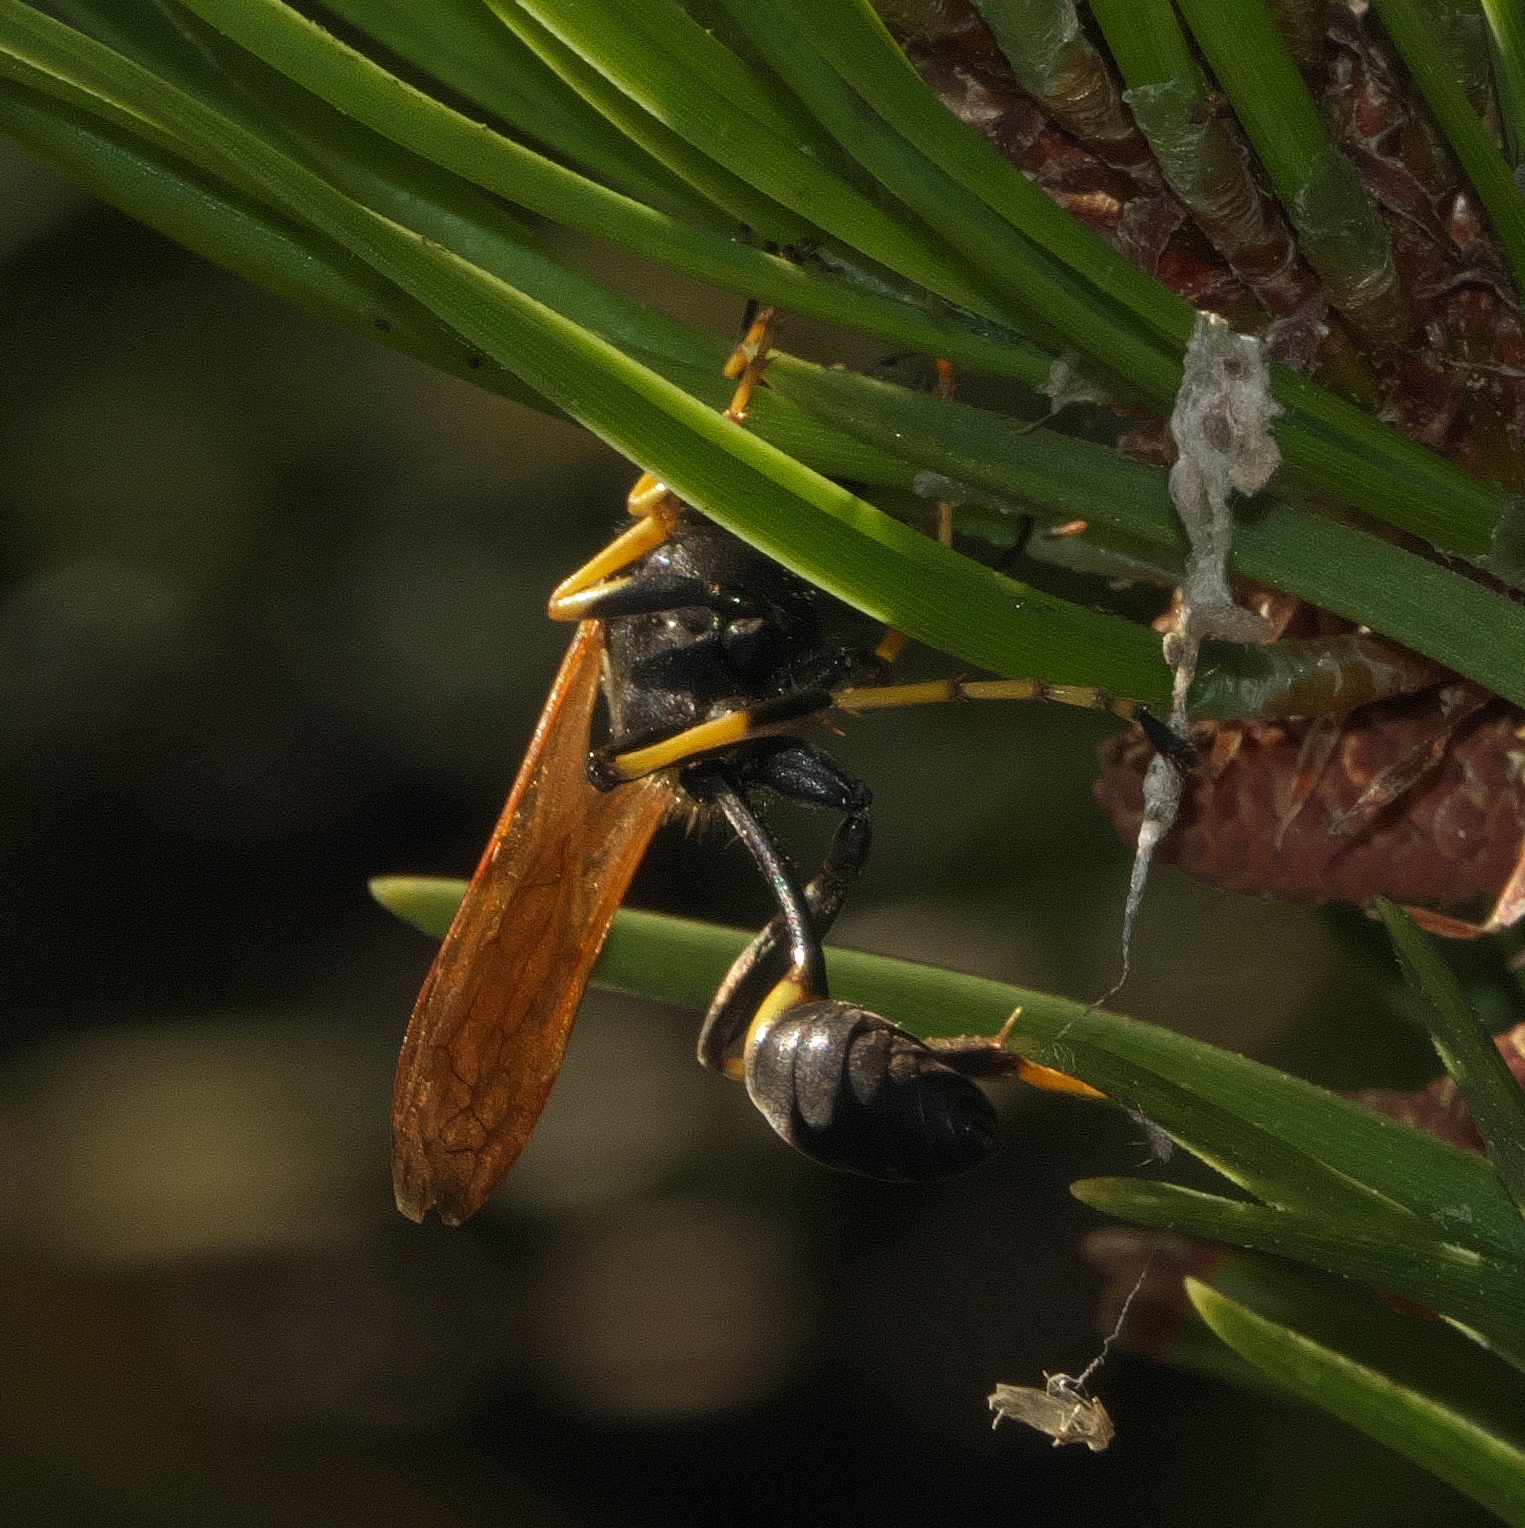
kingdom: Animalia
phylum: Arthropoda
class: Insecta
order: Hymenoptera
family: Sphecidae
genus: Sceliphron
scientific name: Sceliphron caementarium
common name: Mud dauber
